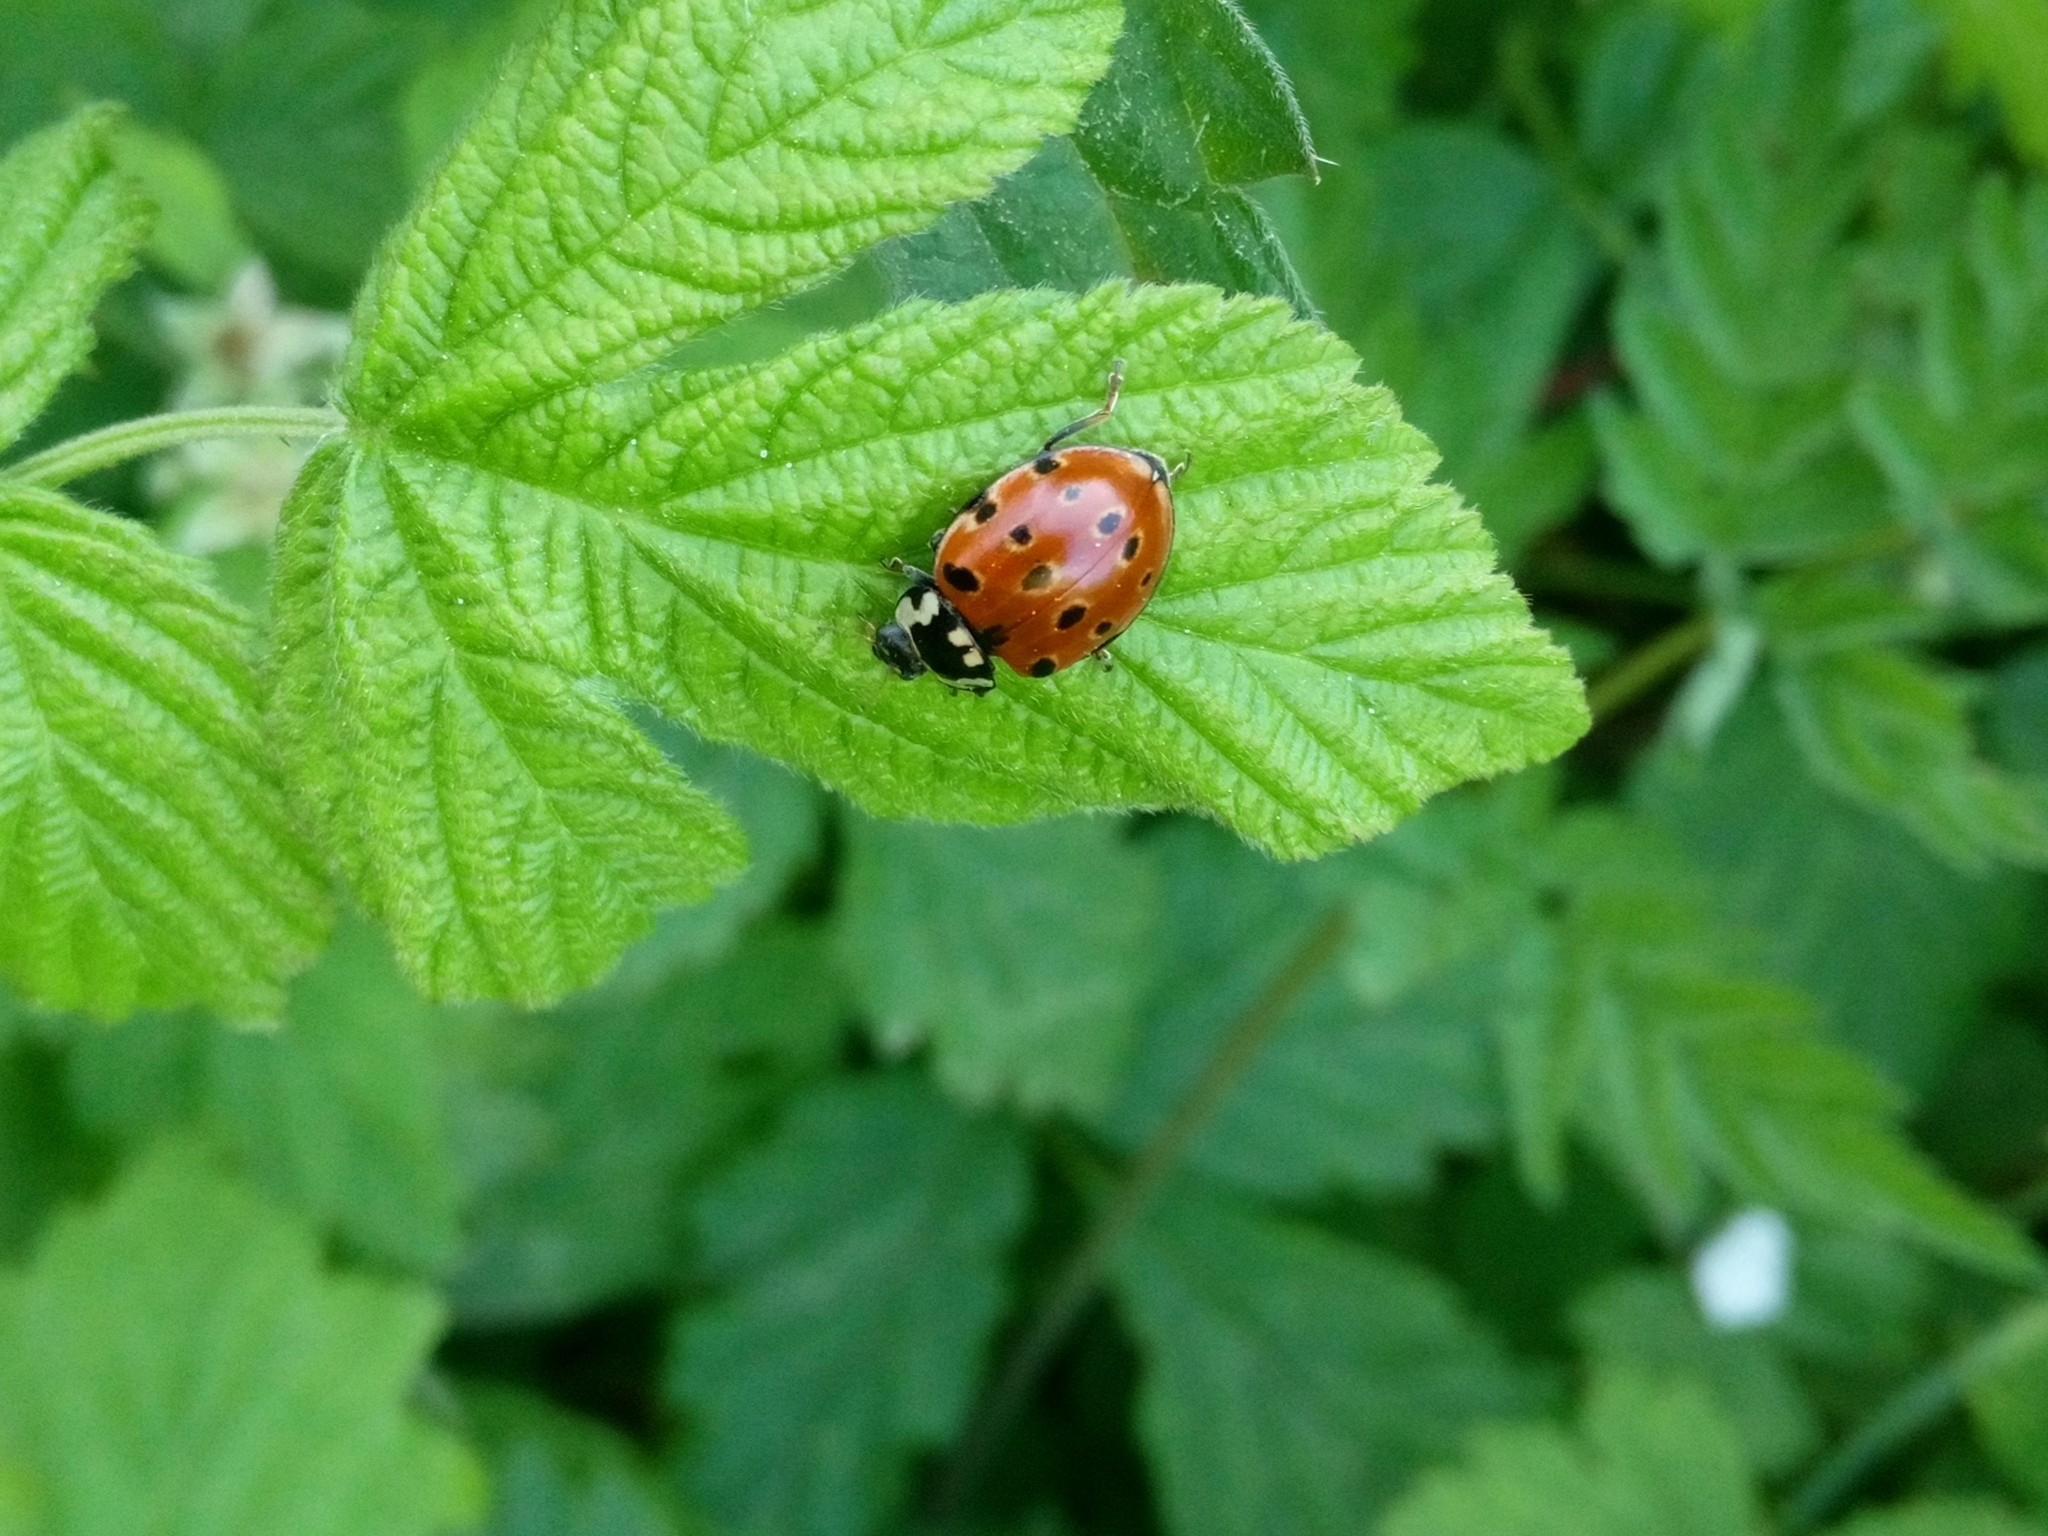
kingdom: Animalia
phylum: Arthropoda
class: Insecta
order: Coleoptera
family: Coccinellidae
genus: Anatis
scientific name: Anatis ocellata
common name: Eyed ladybird
